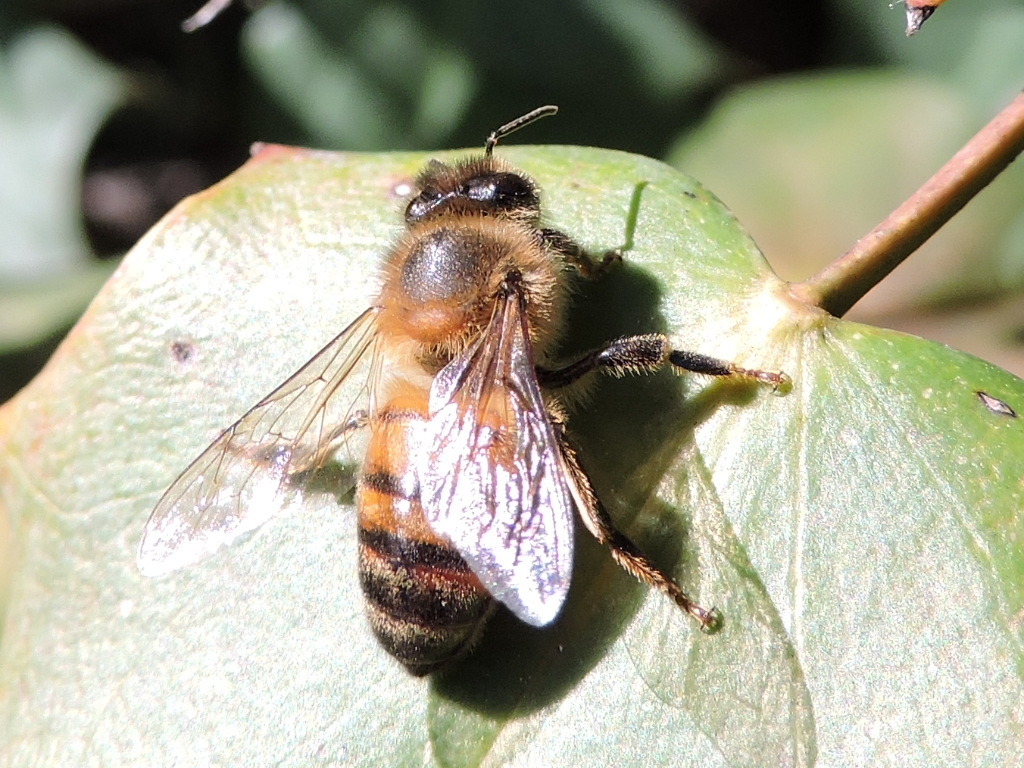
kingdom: Animalia
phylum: Arthropoda
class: Insecta
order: Hymenoptera
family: Apidae
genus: Apis
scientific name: Apis mellifera
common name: Honey bee
